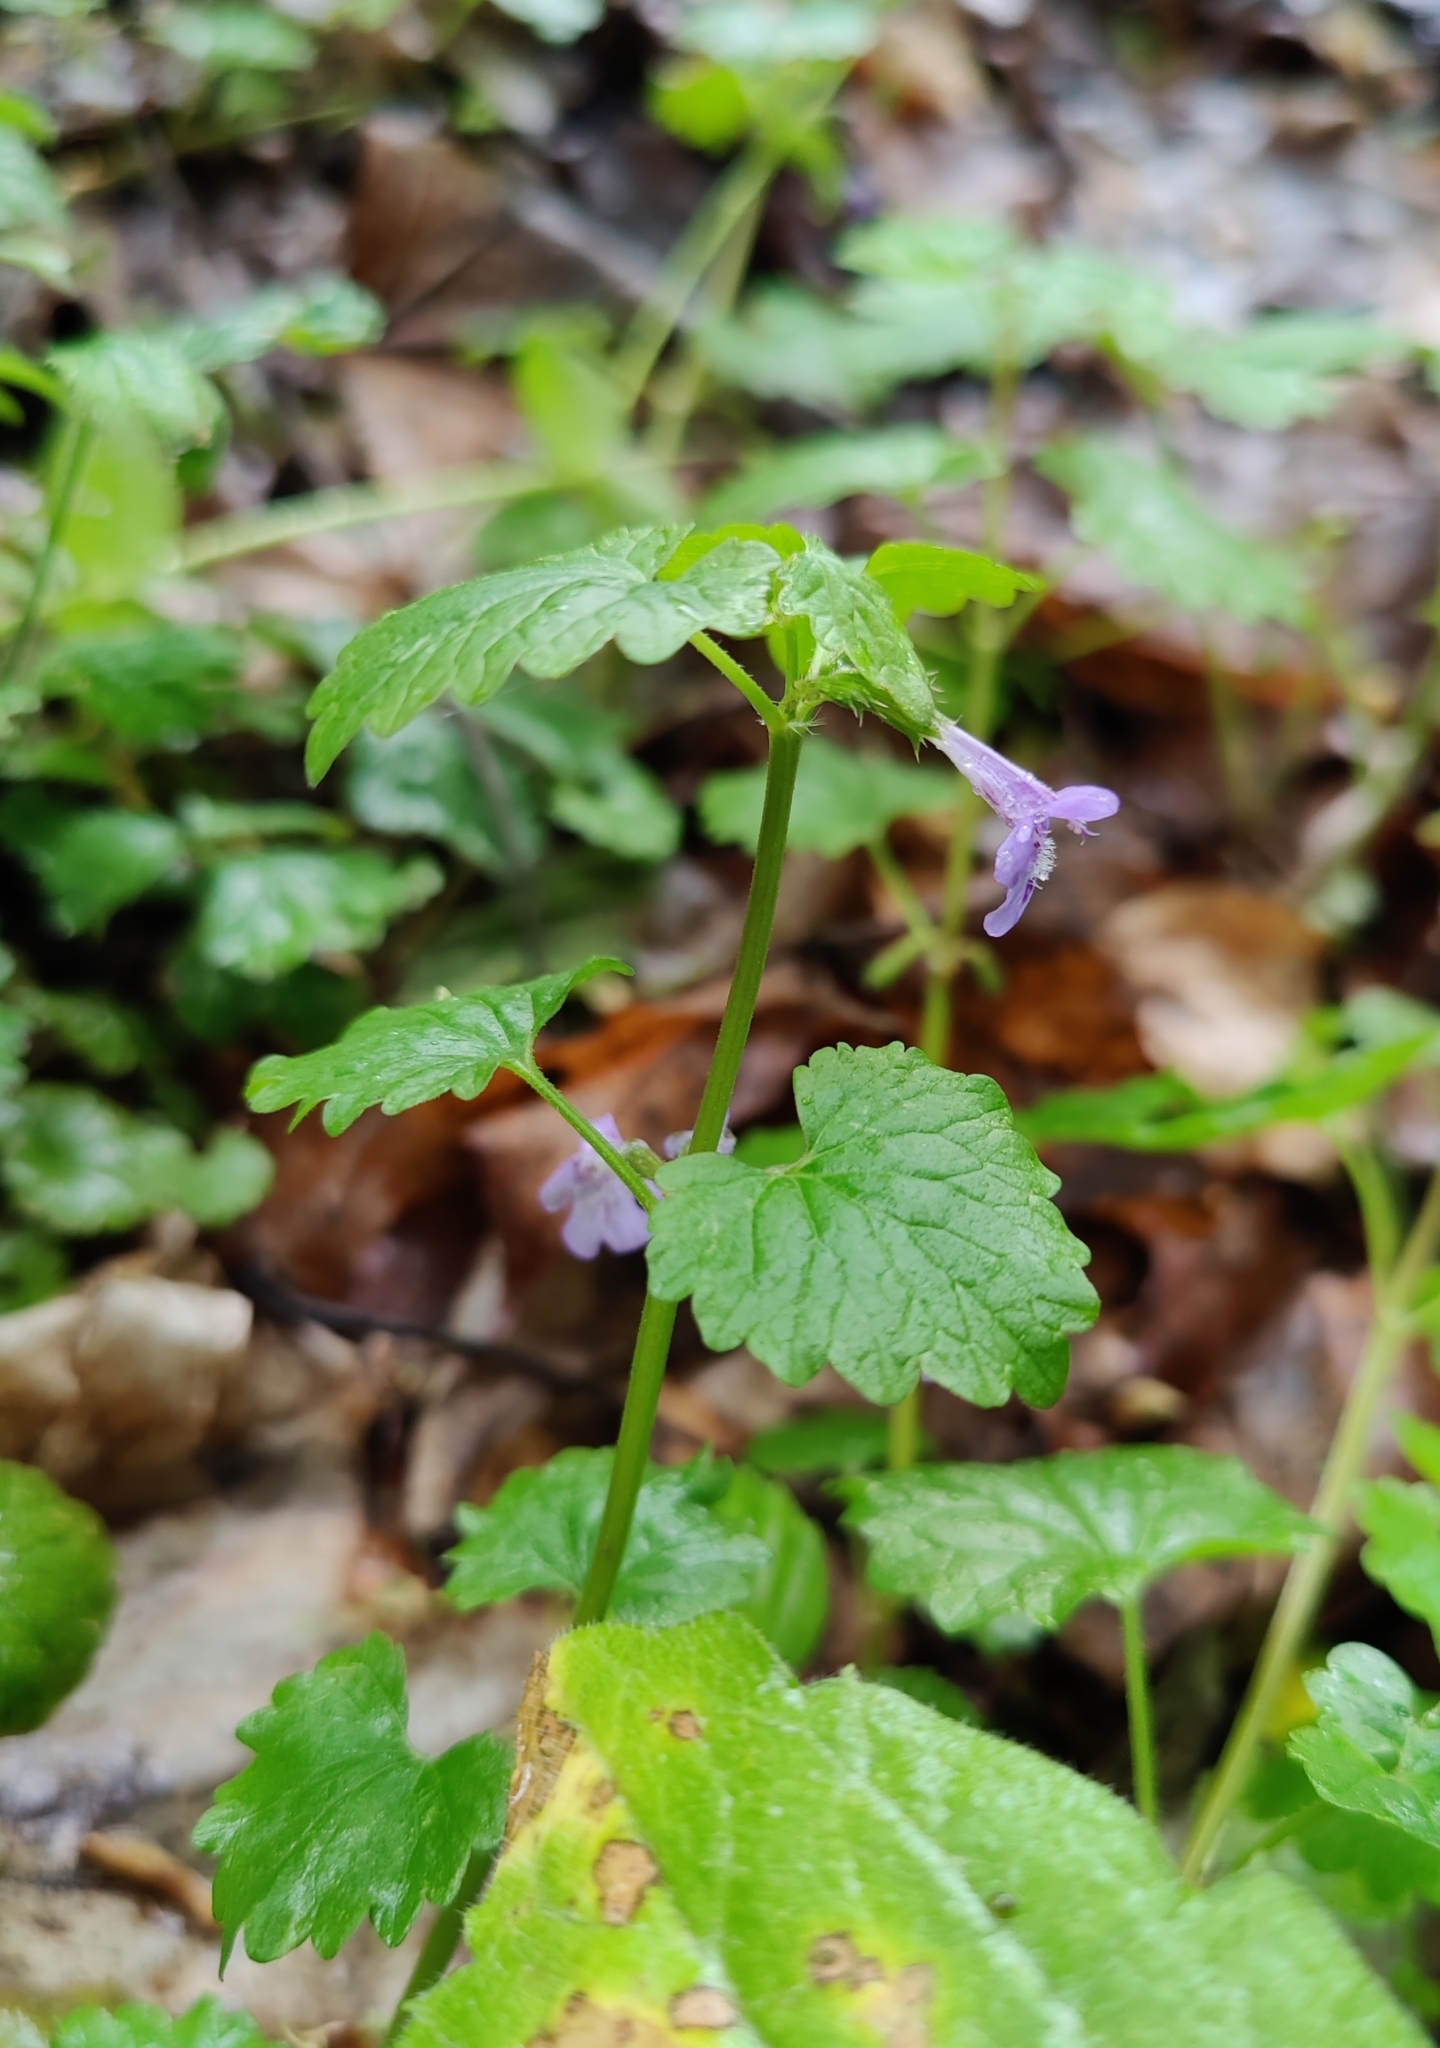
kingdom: Plantae
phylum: Tracheophyta
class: Magnoliopsida
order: Lamiales
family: Lamiaceae
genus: Glechoma
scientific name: Glechoma hederacea
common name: Ground ivy
